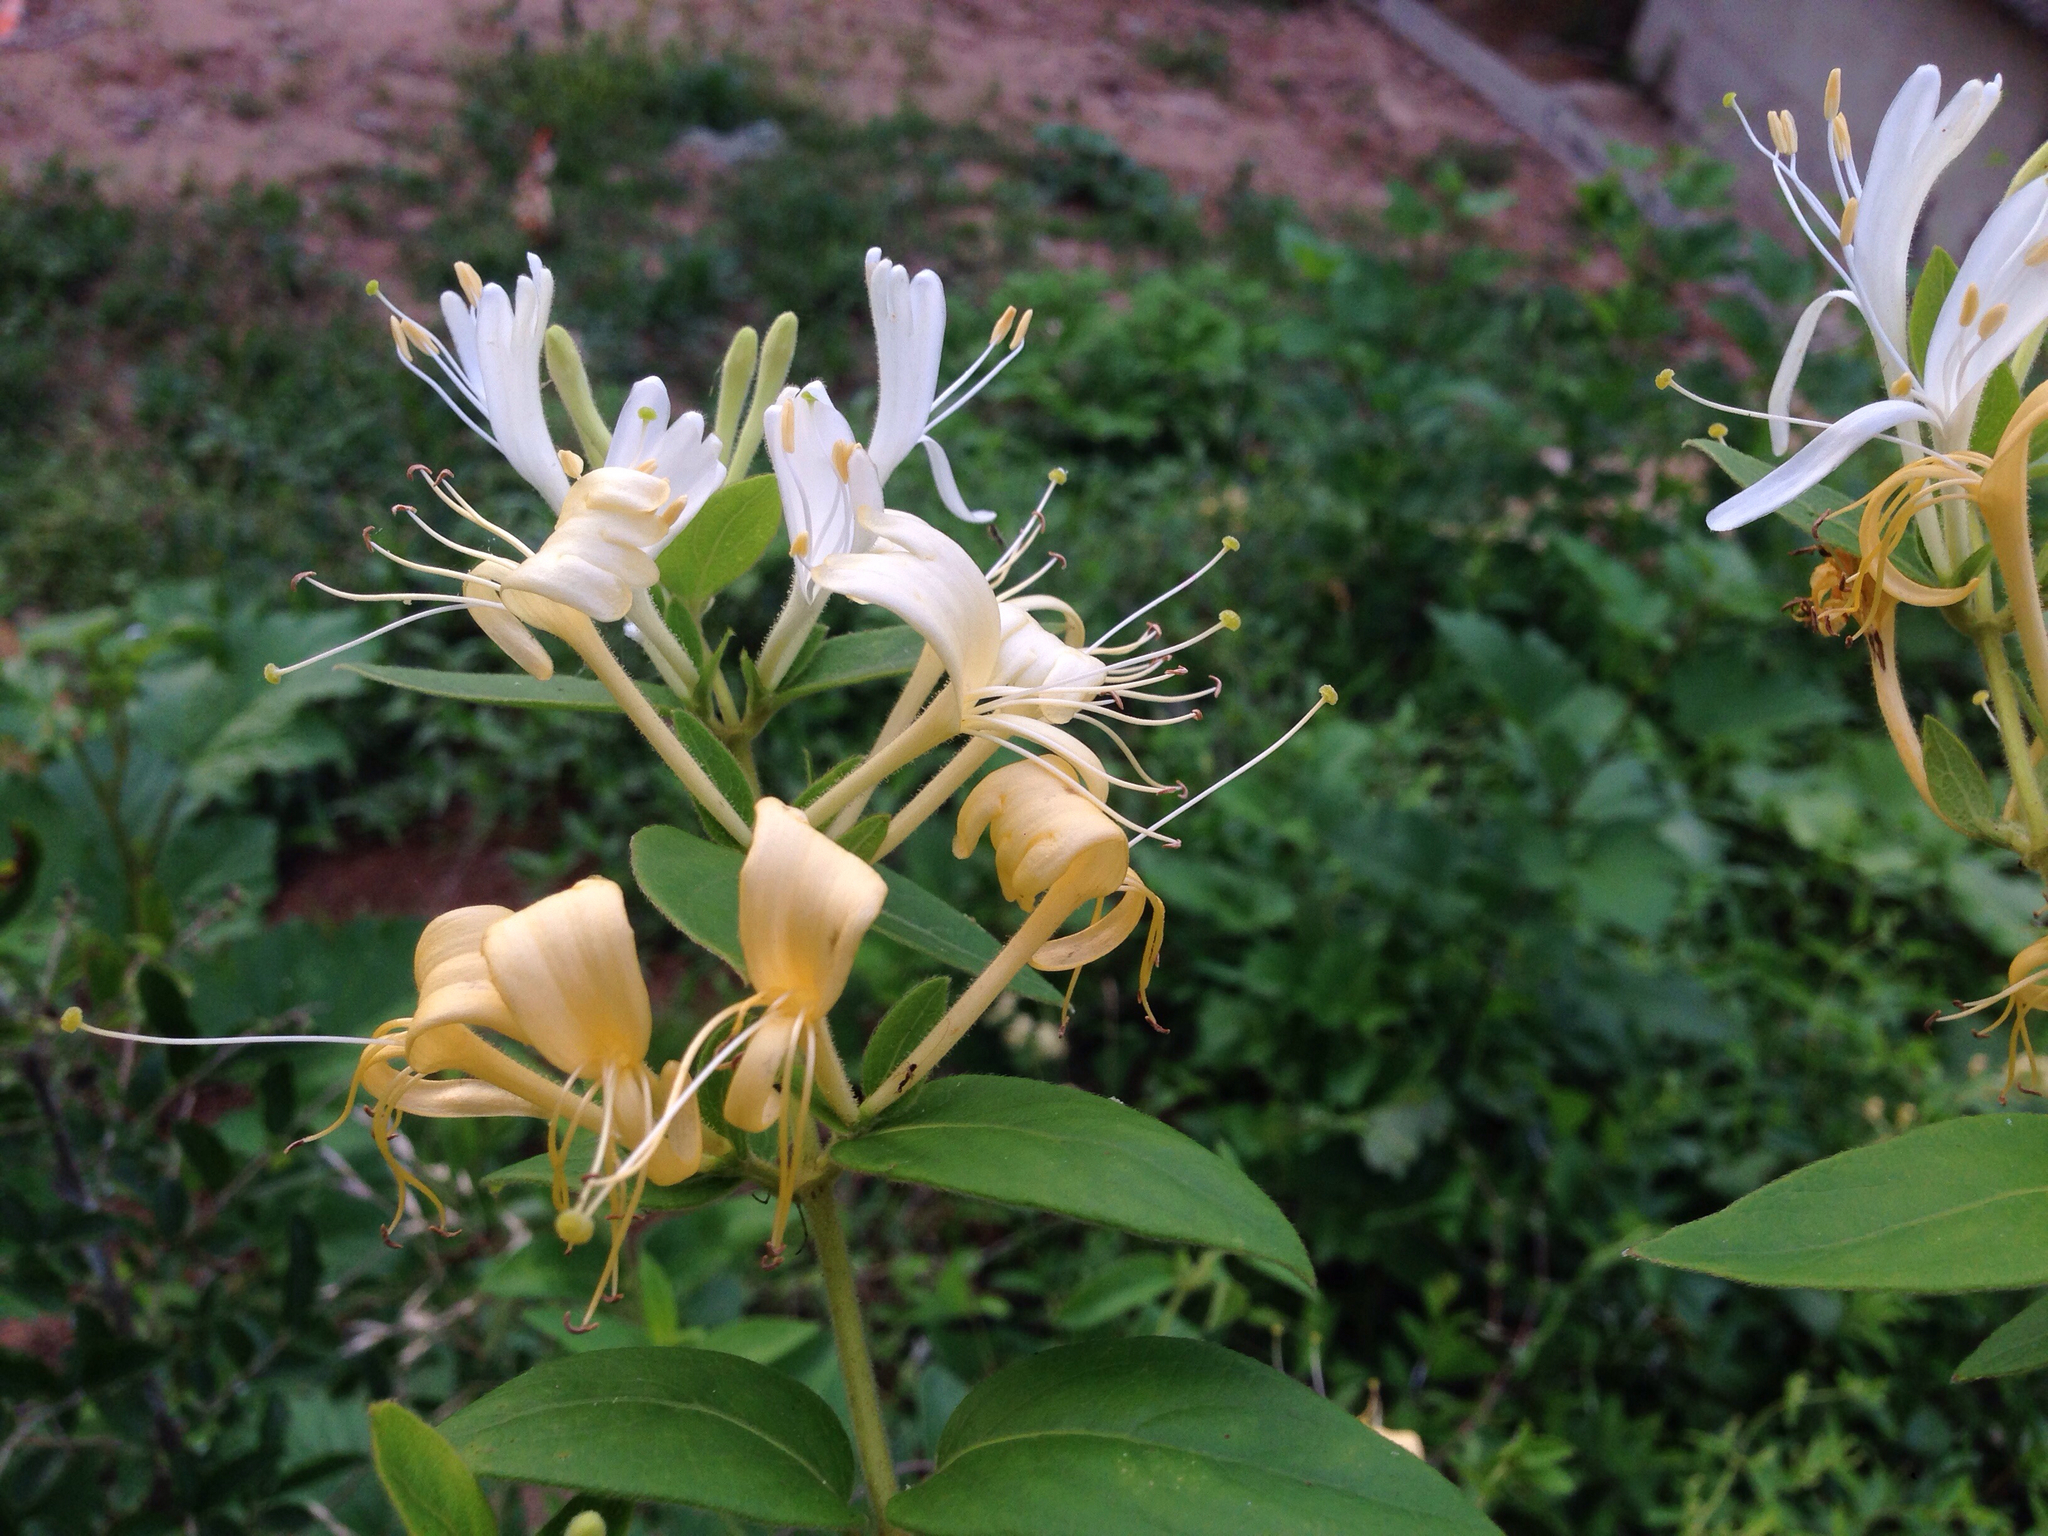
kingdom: Plantae
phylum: Tracheophyta
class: Magnoliopsida
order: Dipsacales
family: Caprifoliaceae
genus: Lonicera
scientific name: Lonicera japonica
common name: Japanese honeysuckle
